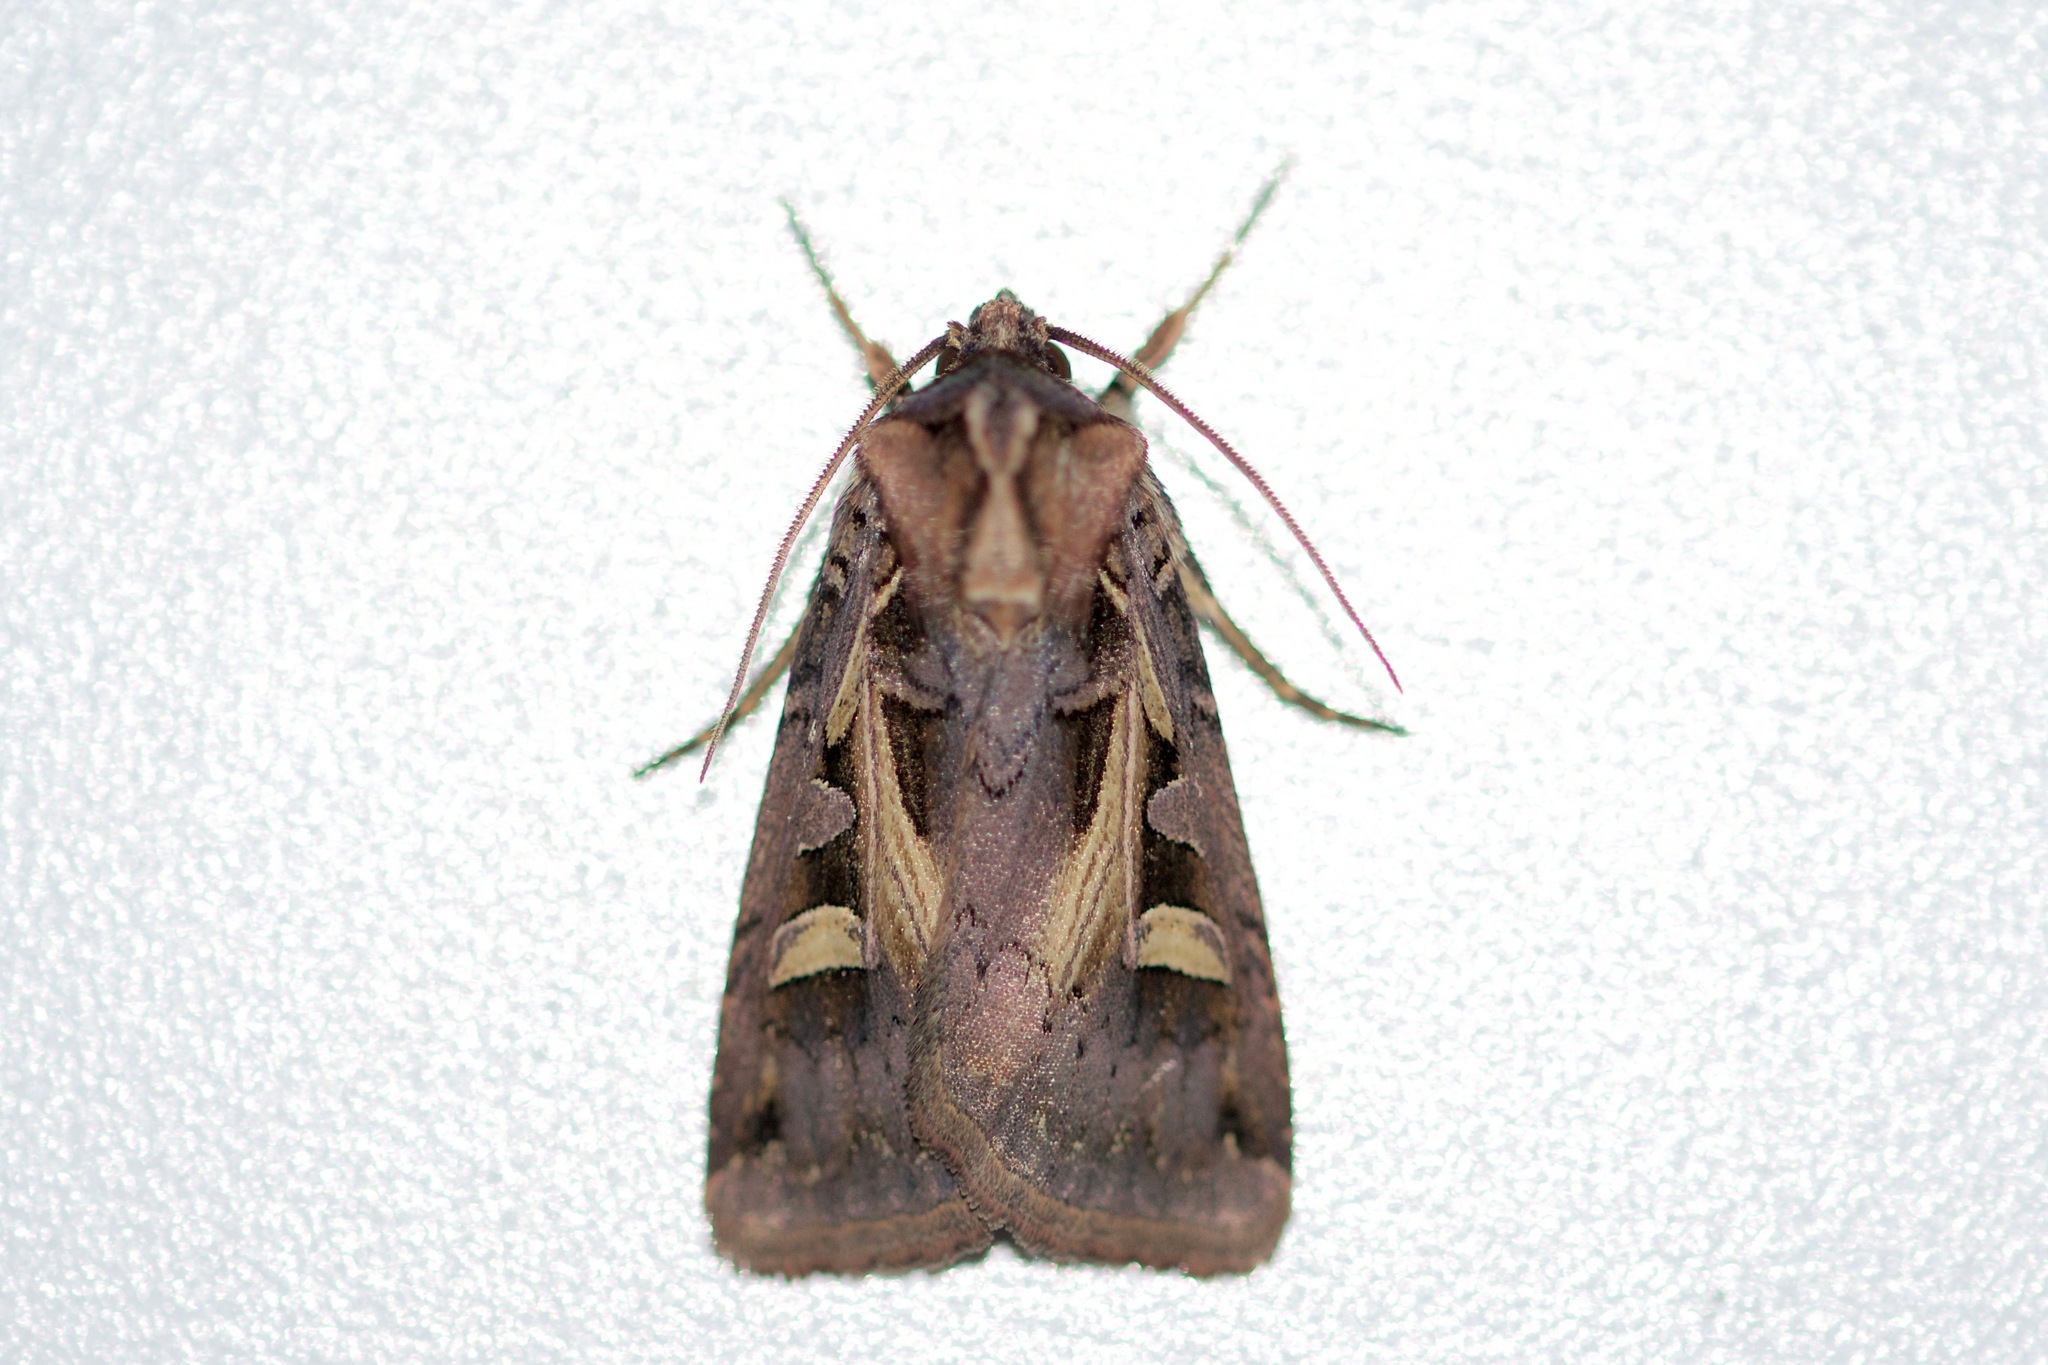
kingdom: Animalia
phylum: Arthropoda
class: Insecta
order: Lepidoptera
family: Noctuidae
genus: Feltia
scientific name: Feltia herilis
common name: Master's dart
